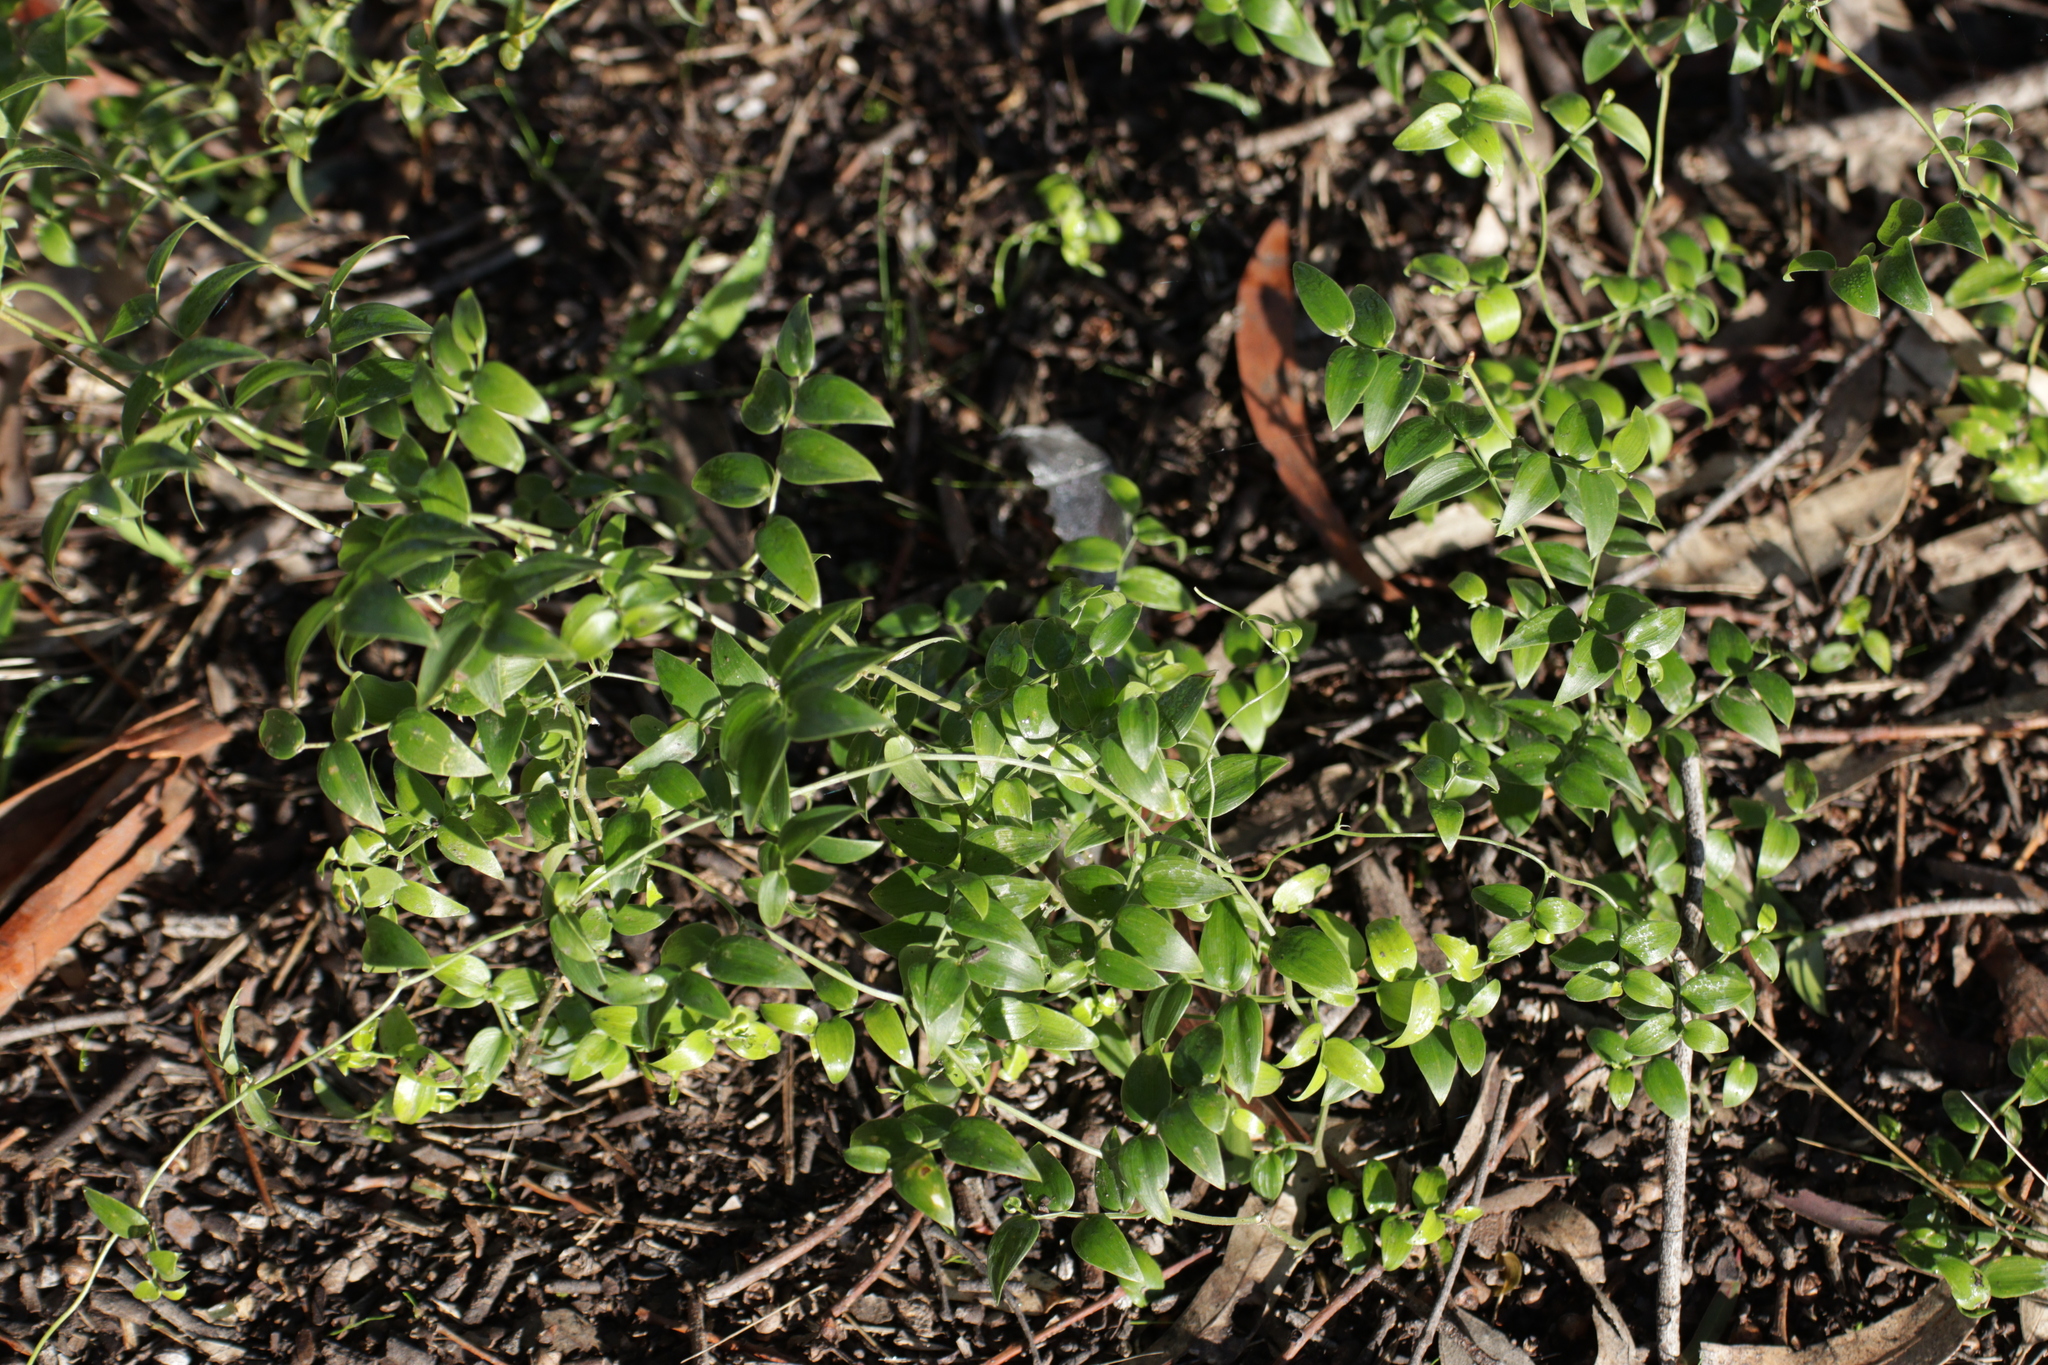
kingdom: Plantae
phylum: Tracheophyta
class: Liliopsida
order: Asparagales
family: Asparagaceae
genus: Asparagus
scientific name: Asparagus asparagoides
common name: African asparagus fern
